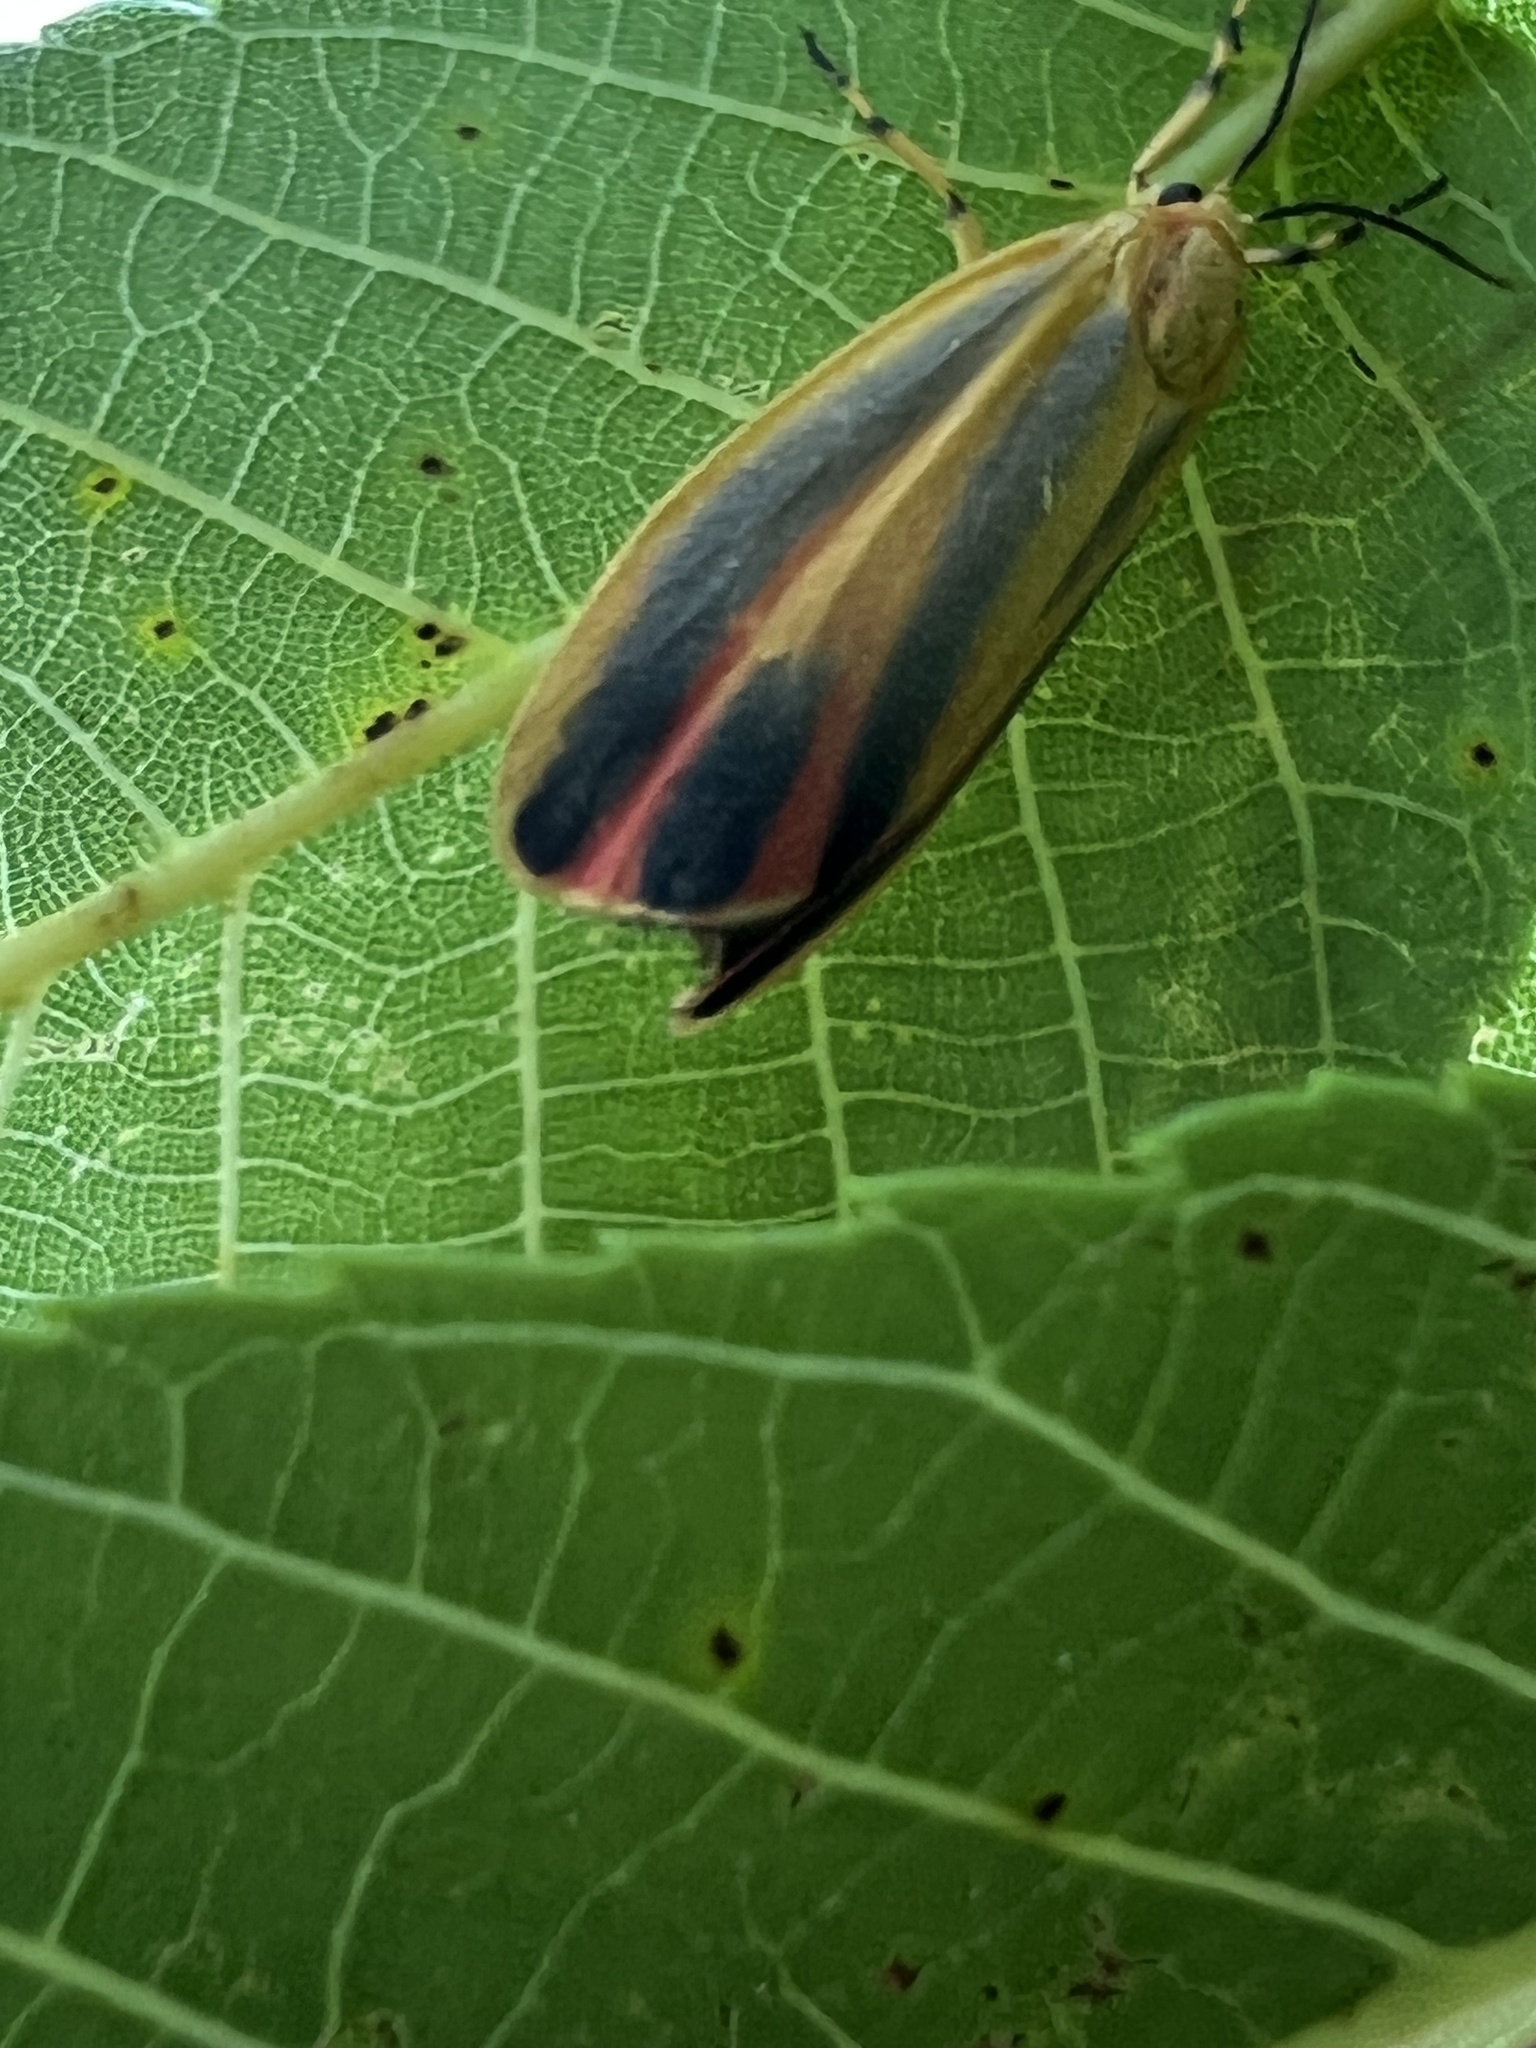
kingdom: Animalia
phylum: Arthropoda
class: Insecta
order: Lepidoptera
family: Erebidae
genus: Hypoprepia
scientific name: Hypoprepia fucosa
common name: Painted lichen moth
